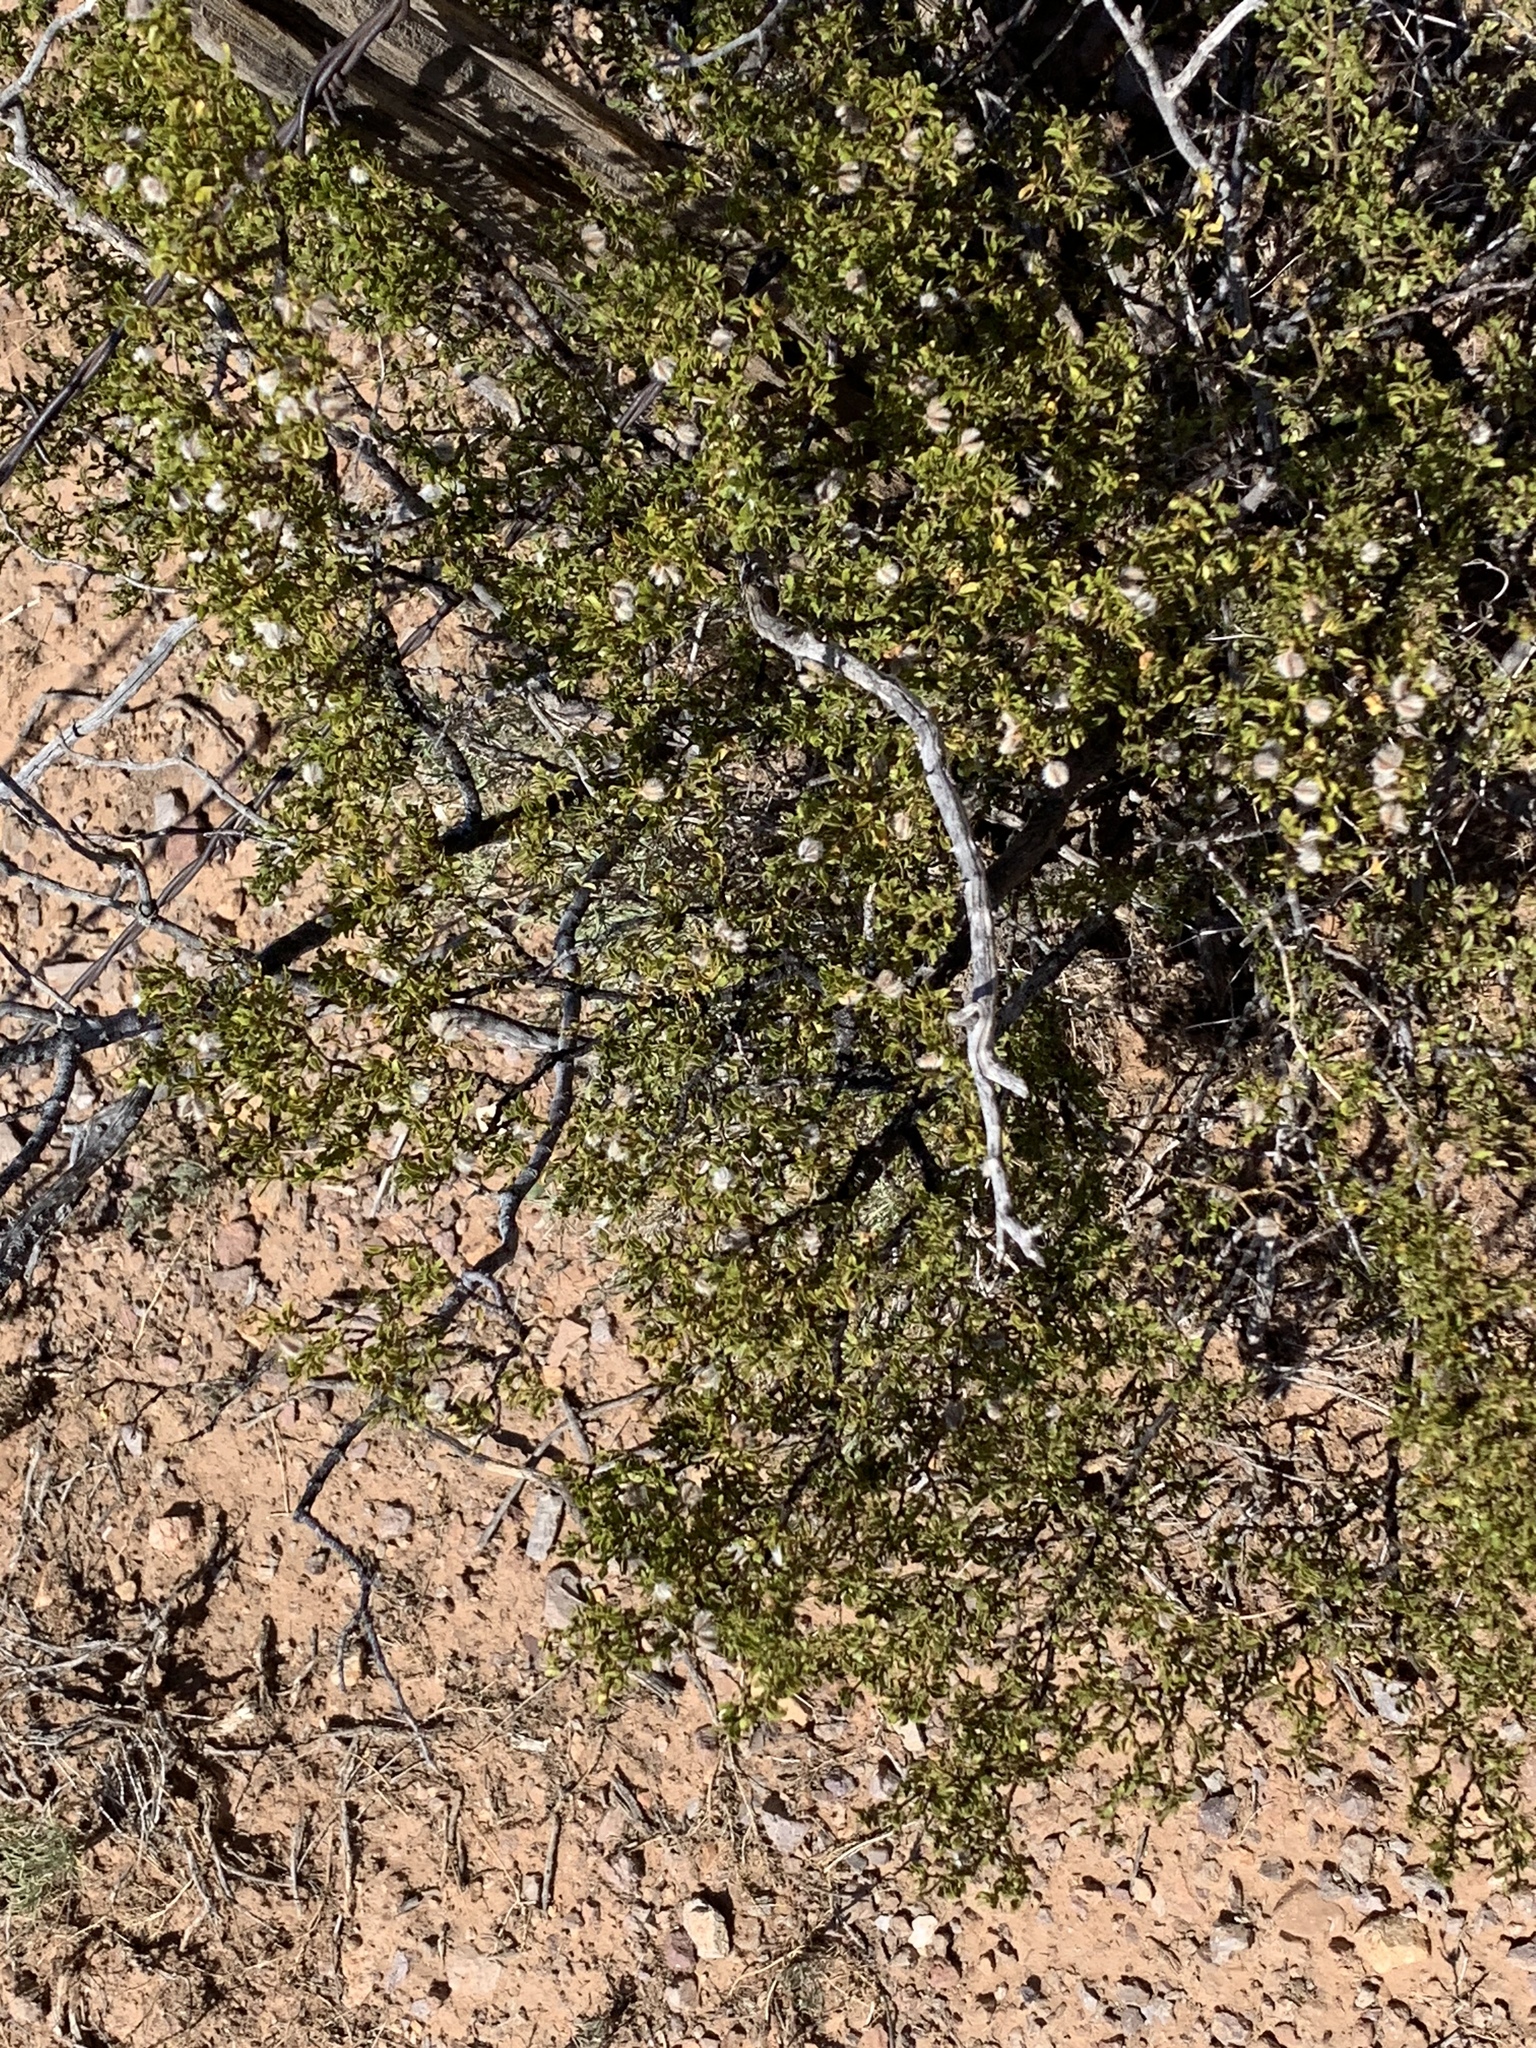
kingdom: Plantae
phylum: Tracheophyta
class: Magnoliopsida
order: Zygophyllales
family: Zygophyllaceae
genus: Larrea
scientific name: Larrea tridentata
